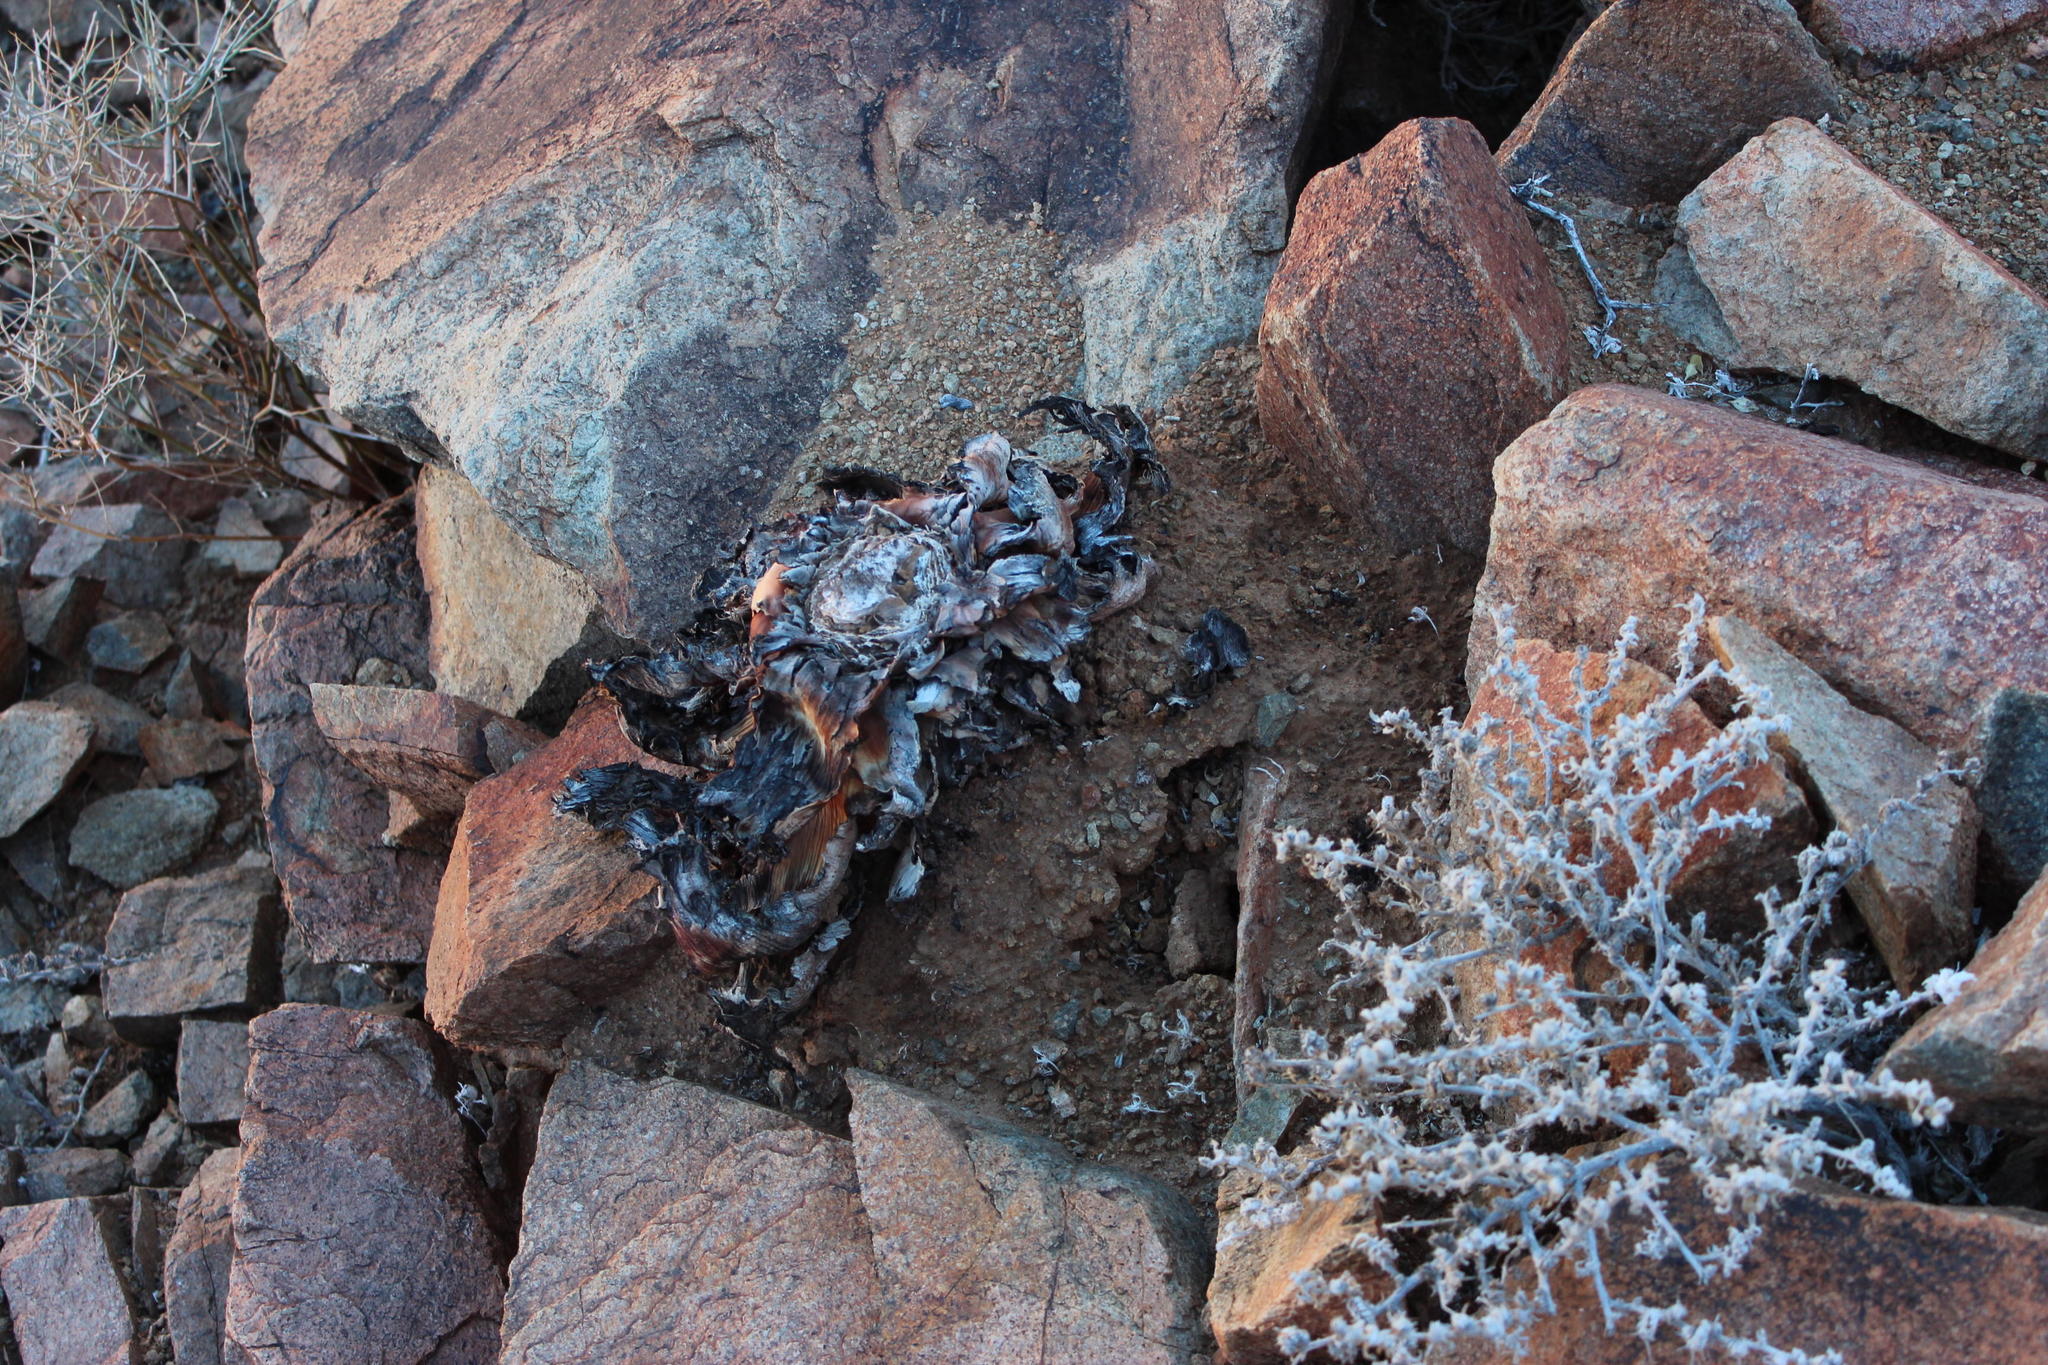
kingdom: Plantae
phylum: Tracheophyta
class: Liliopsida
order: Asparagales
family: Asphodelaceae
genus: Aloe
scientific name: Aloe gariepensis
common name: Orange river aloe
